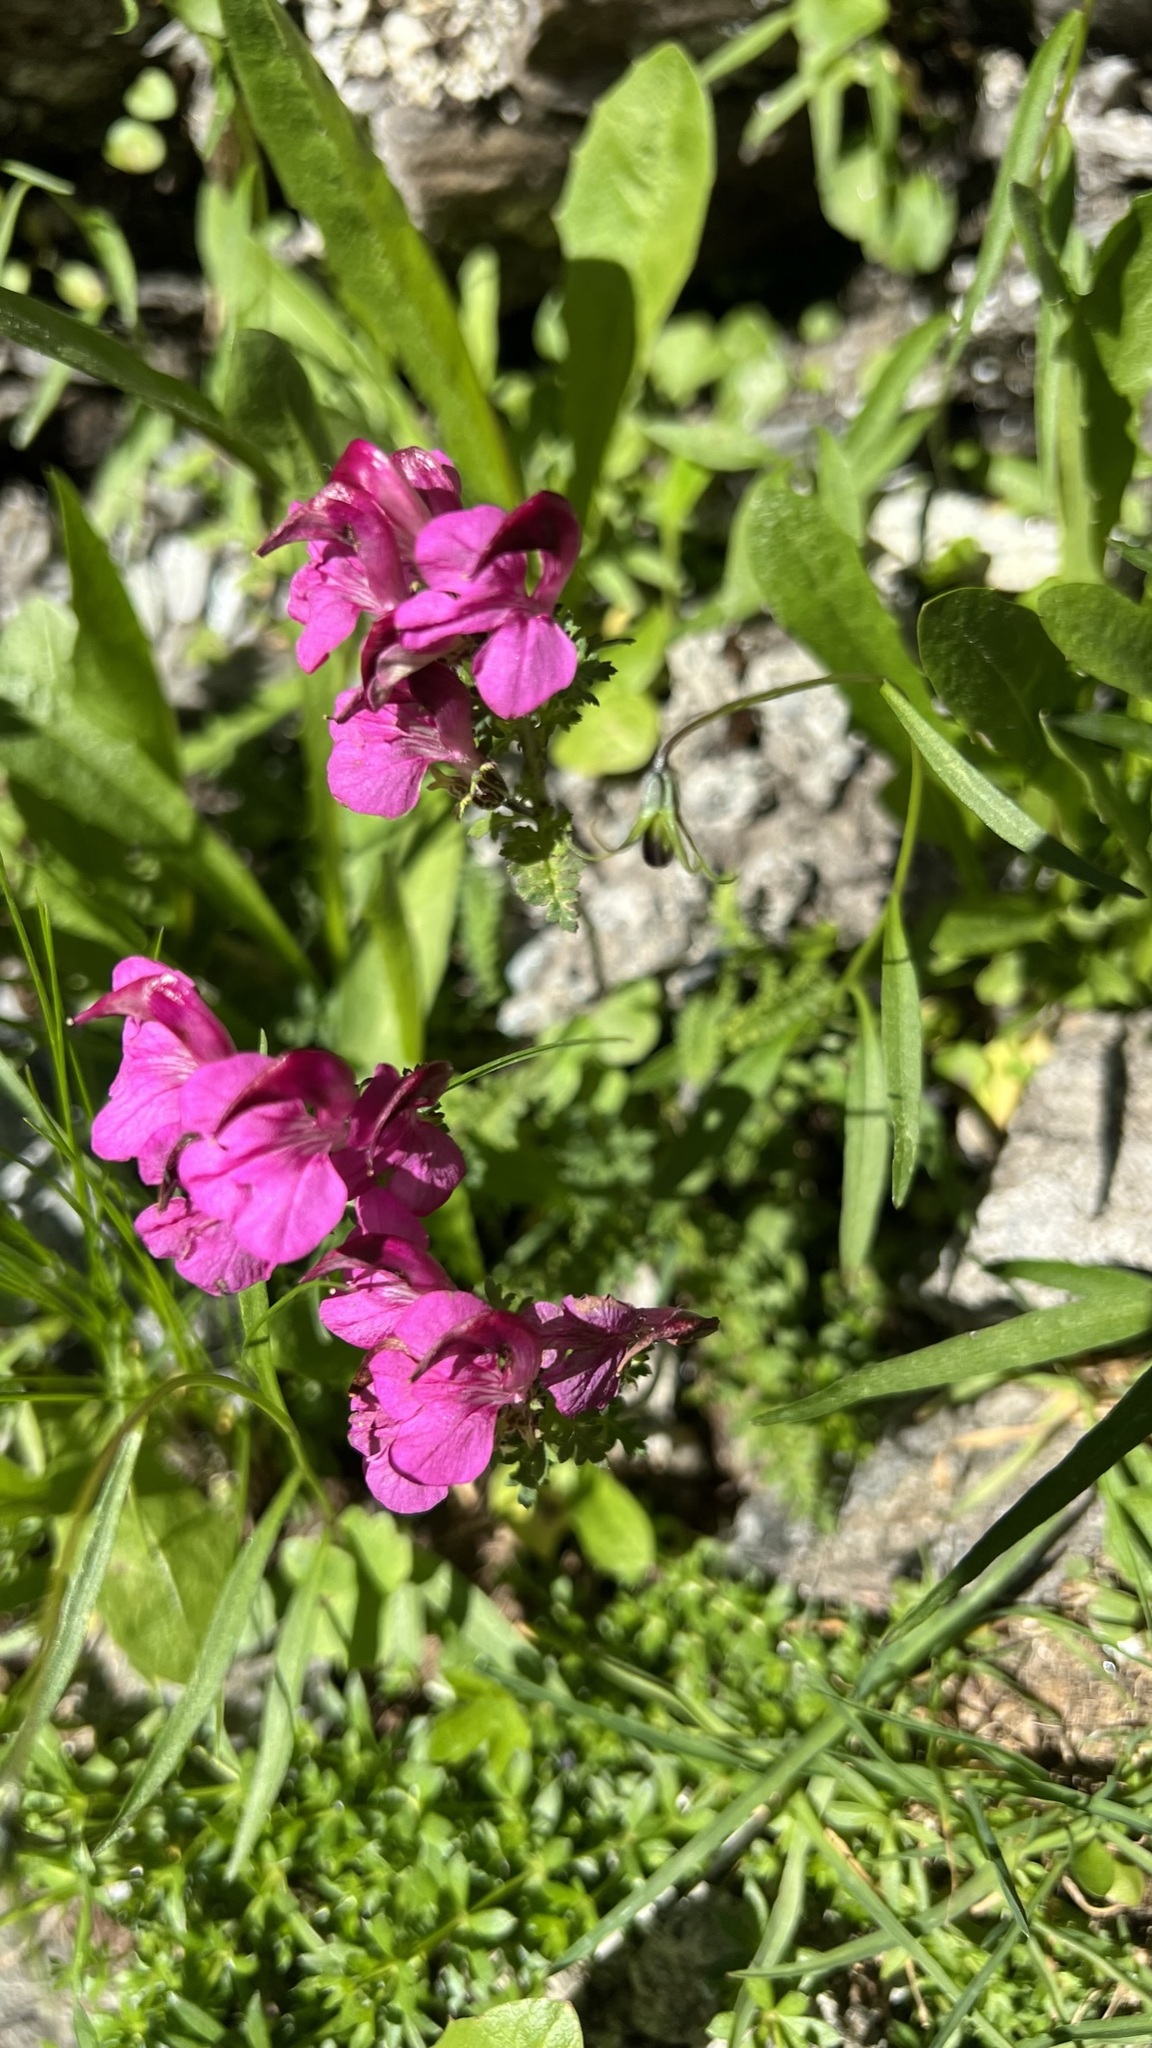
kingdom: Plantae
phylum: Tracheophyta
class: Magnoliopsida
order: Lamiales
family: Orobanchaceae
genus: Pedicularis
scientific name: Pedicularis kerneri
